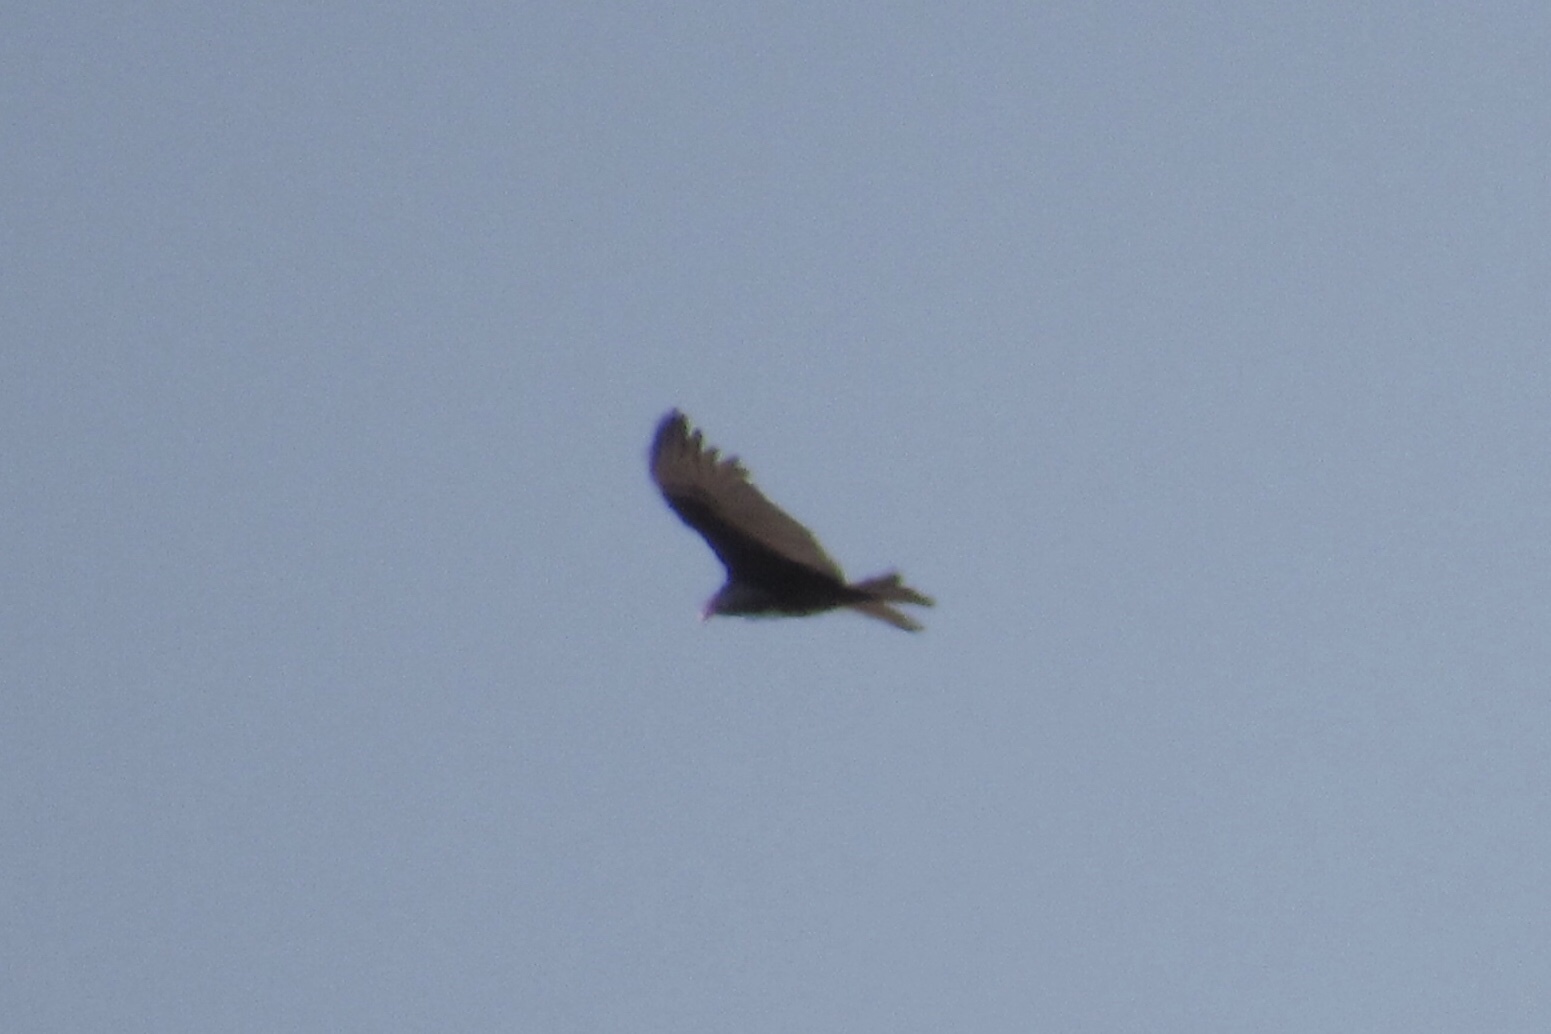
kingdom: Animalia
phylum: Chordata
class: Aves
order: Accipitriformes
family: Cathartidae
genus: Cathartes
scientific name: Cathartes aura
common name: Turkey vulture
